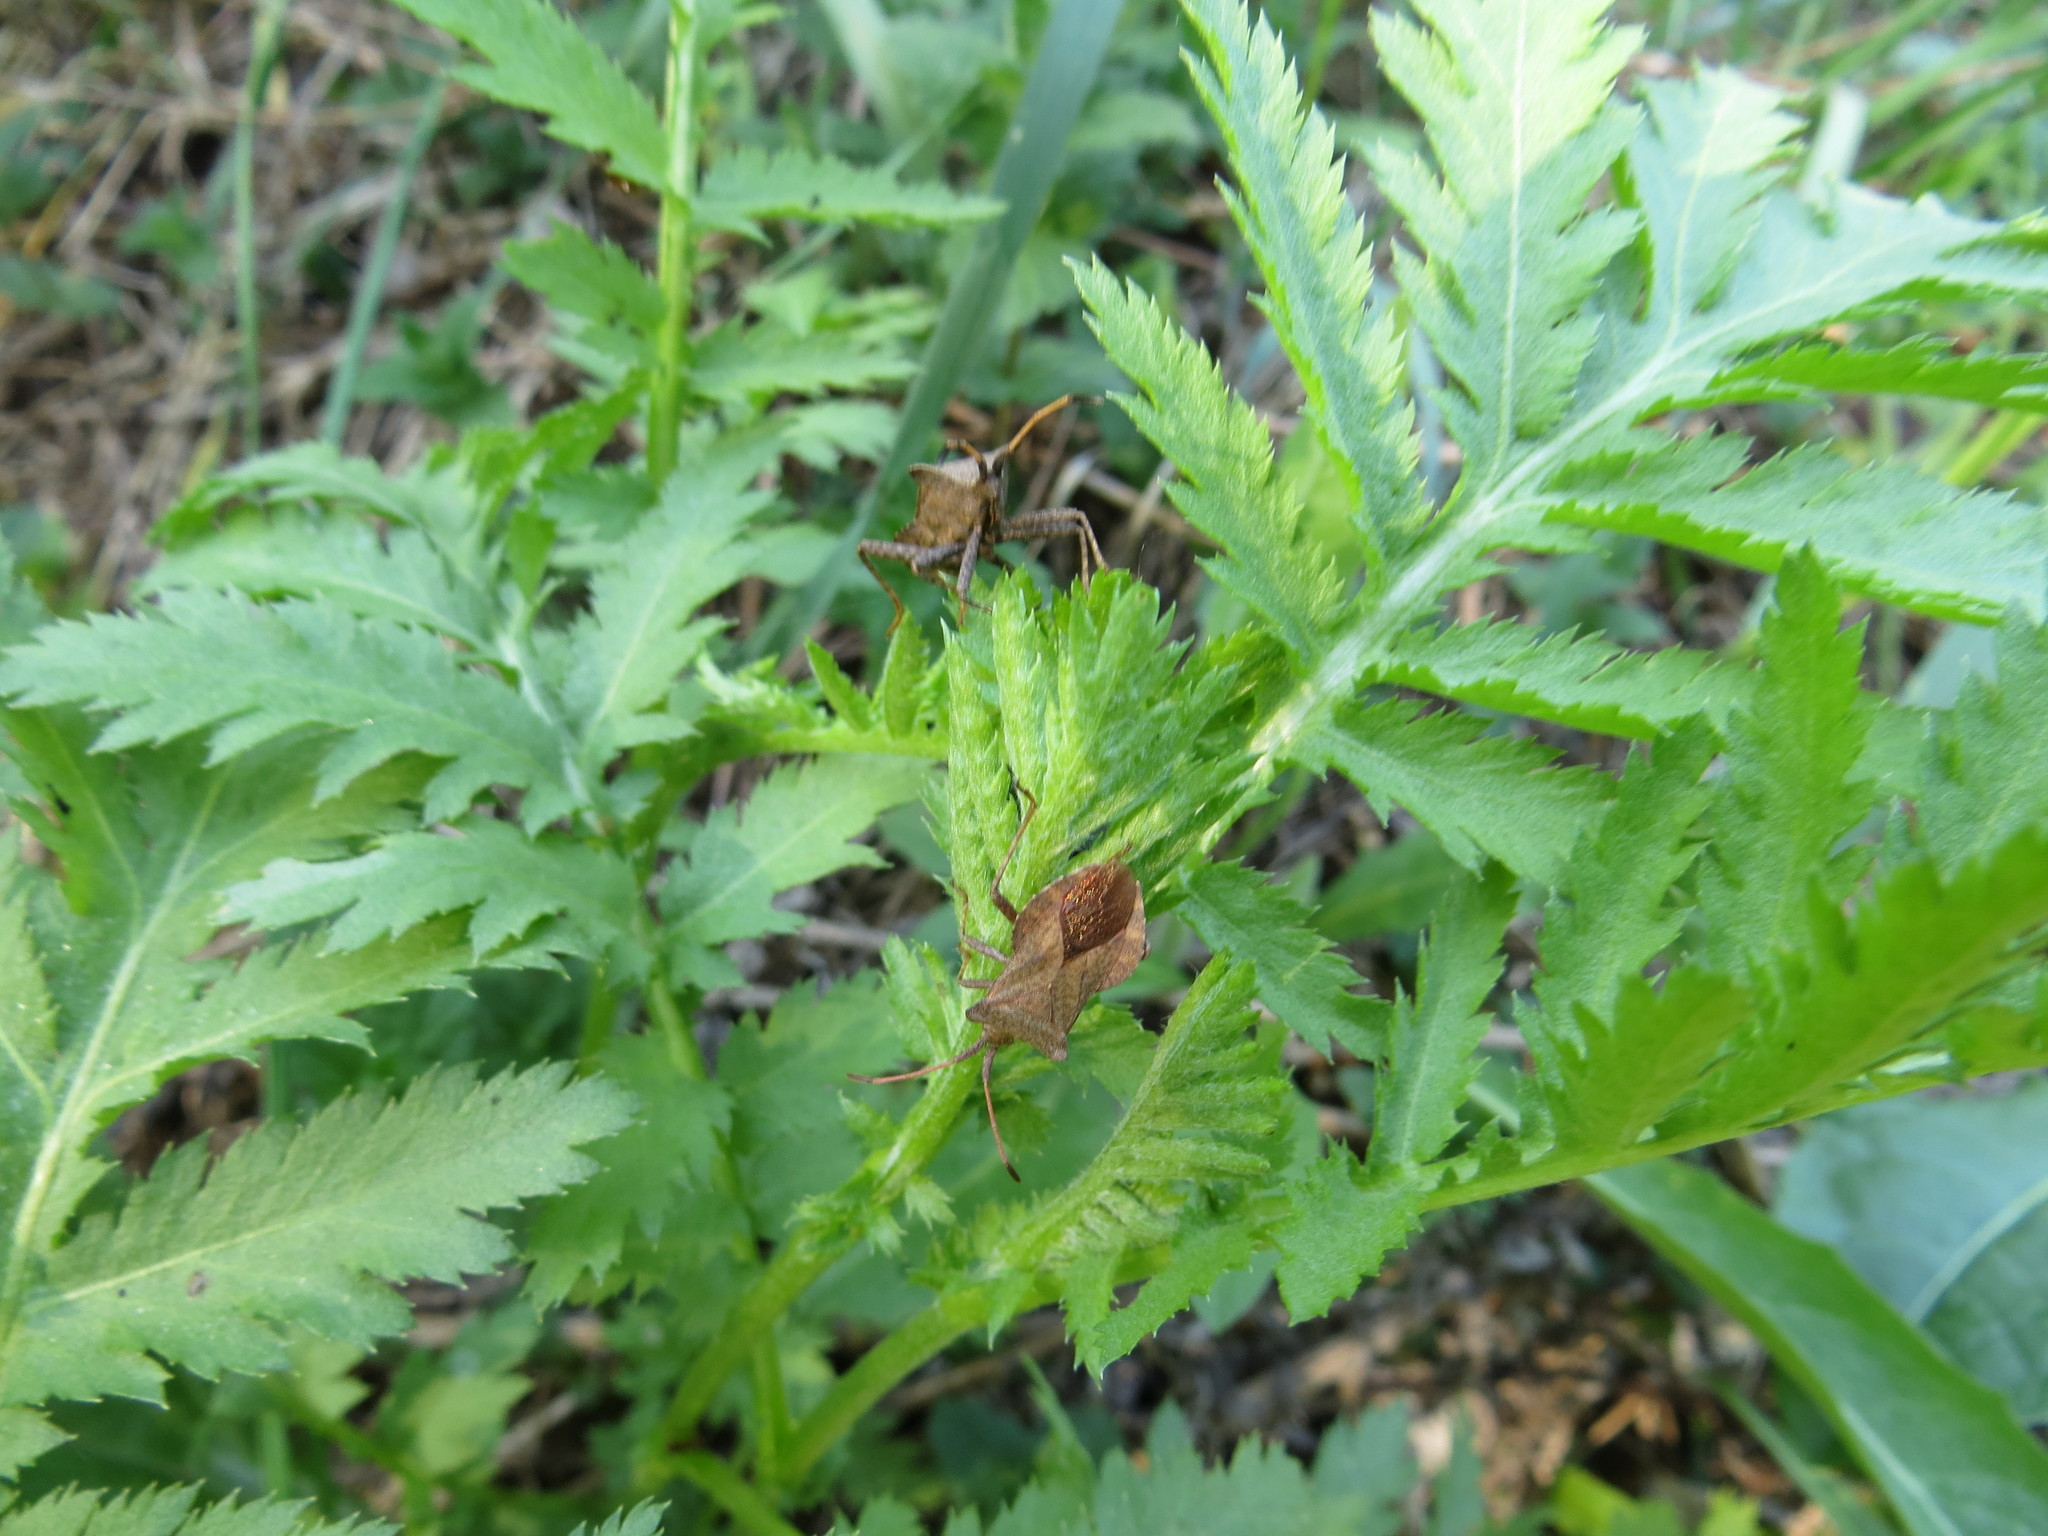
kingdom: Animalia
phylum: Arthropoda
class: Insecta
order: Hemiptera
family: Coreidae
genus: Coreus
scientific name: Coreus marginatus
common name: Dock bug
